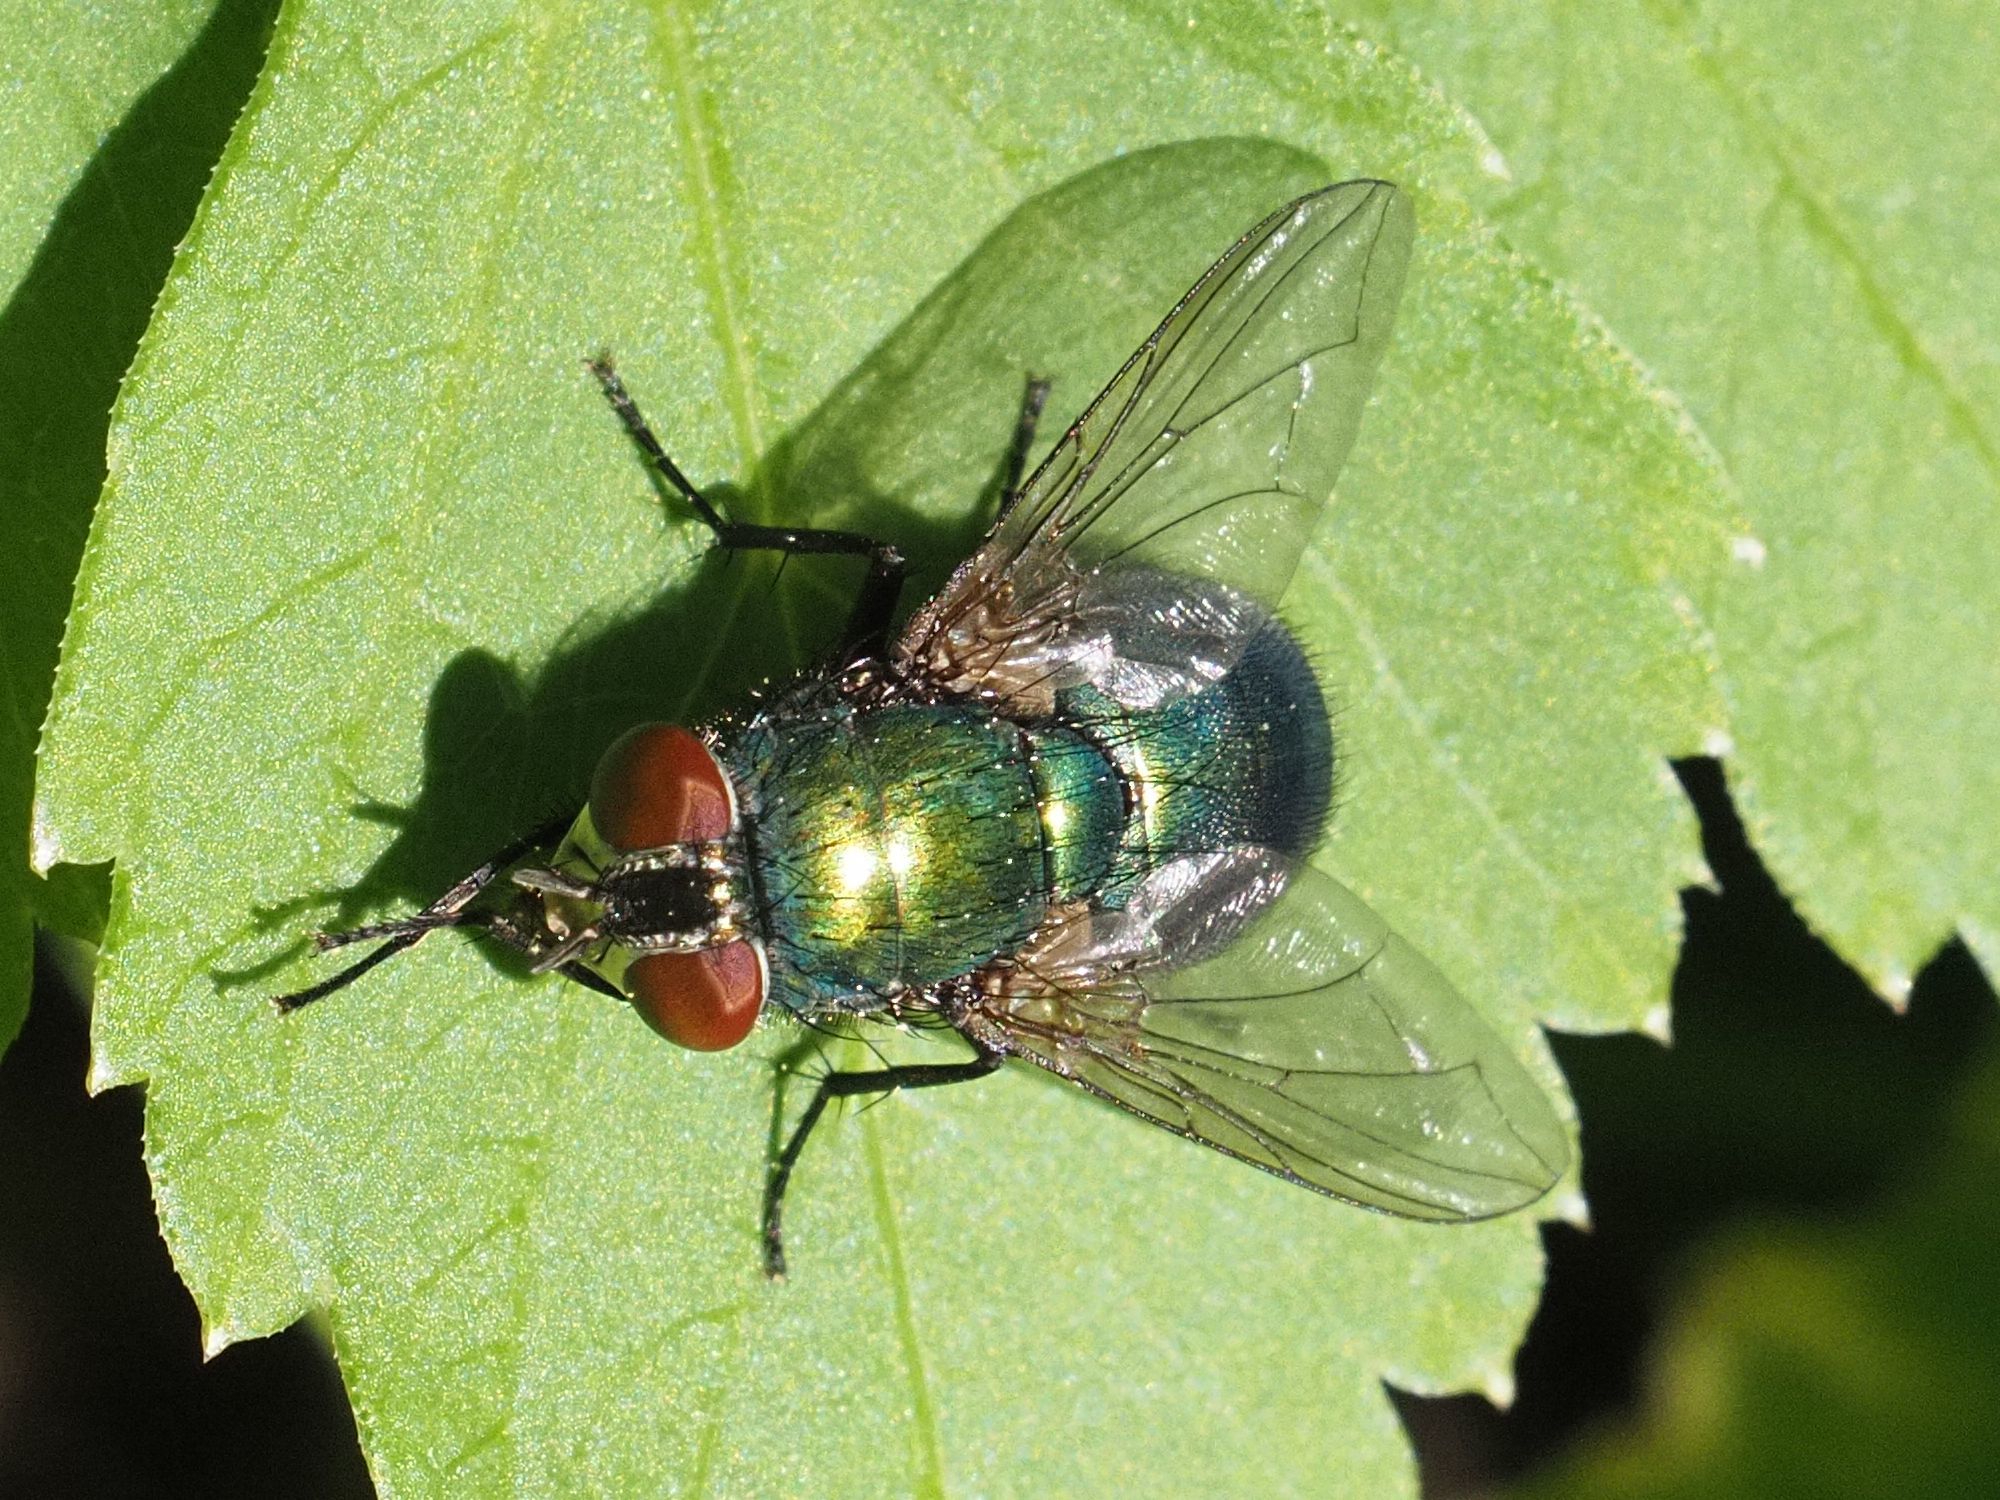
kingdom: Animalia
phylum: Arthropoda
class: Insecta
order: Diptera
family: Calliphoridae
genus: Lucilia
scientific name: Lucilia
